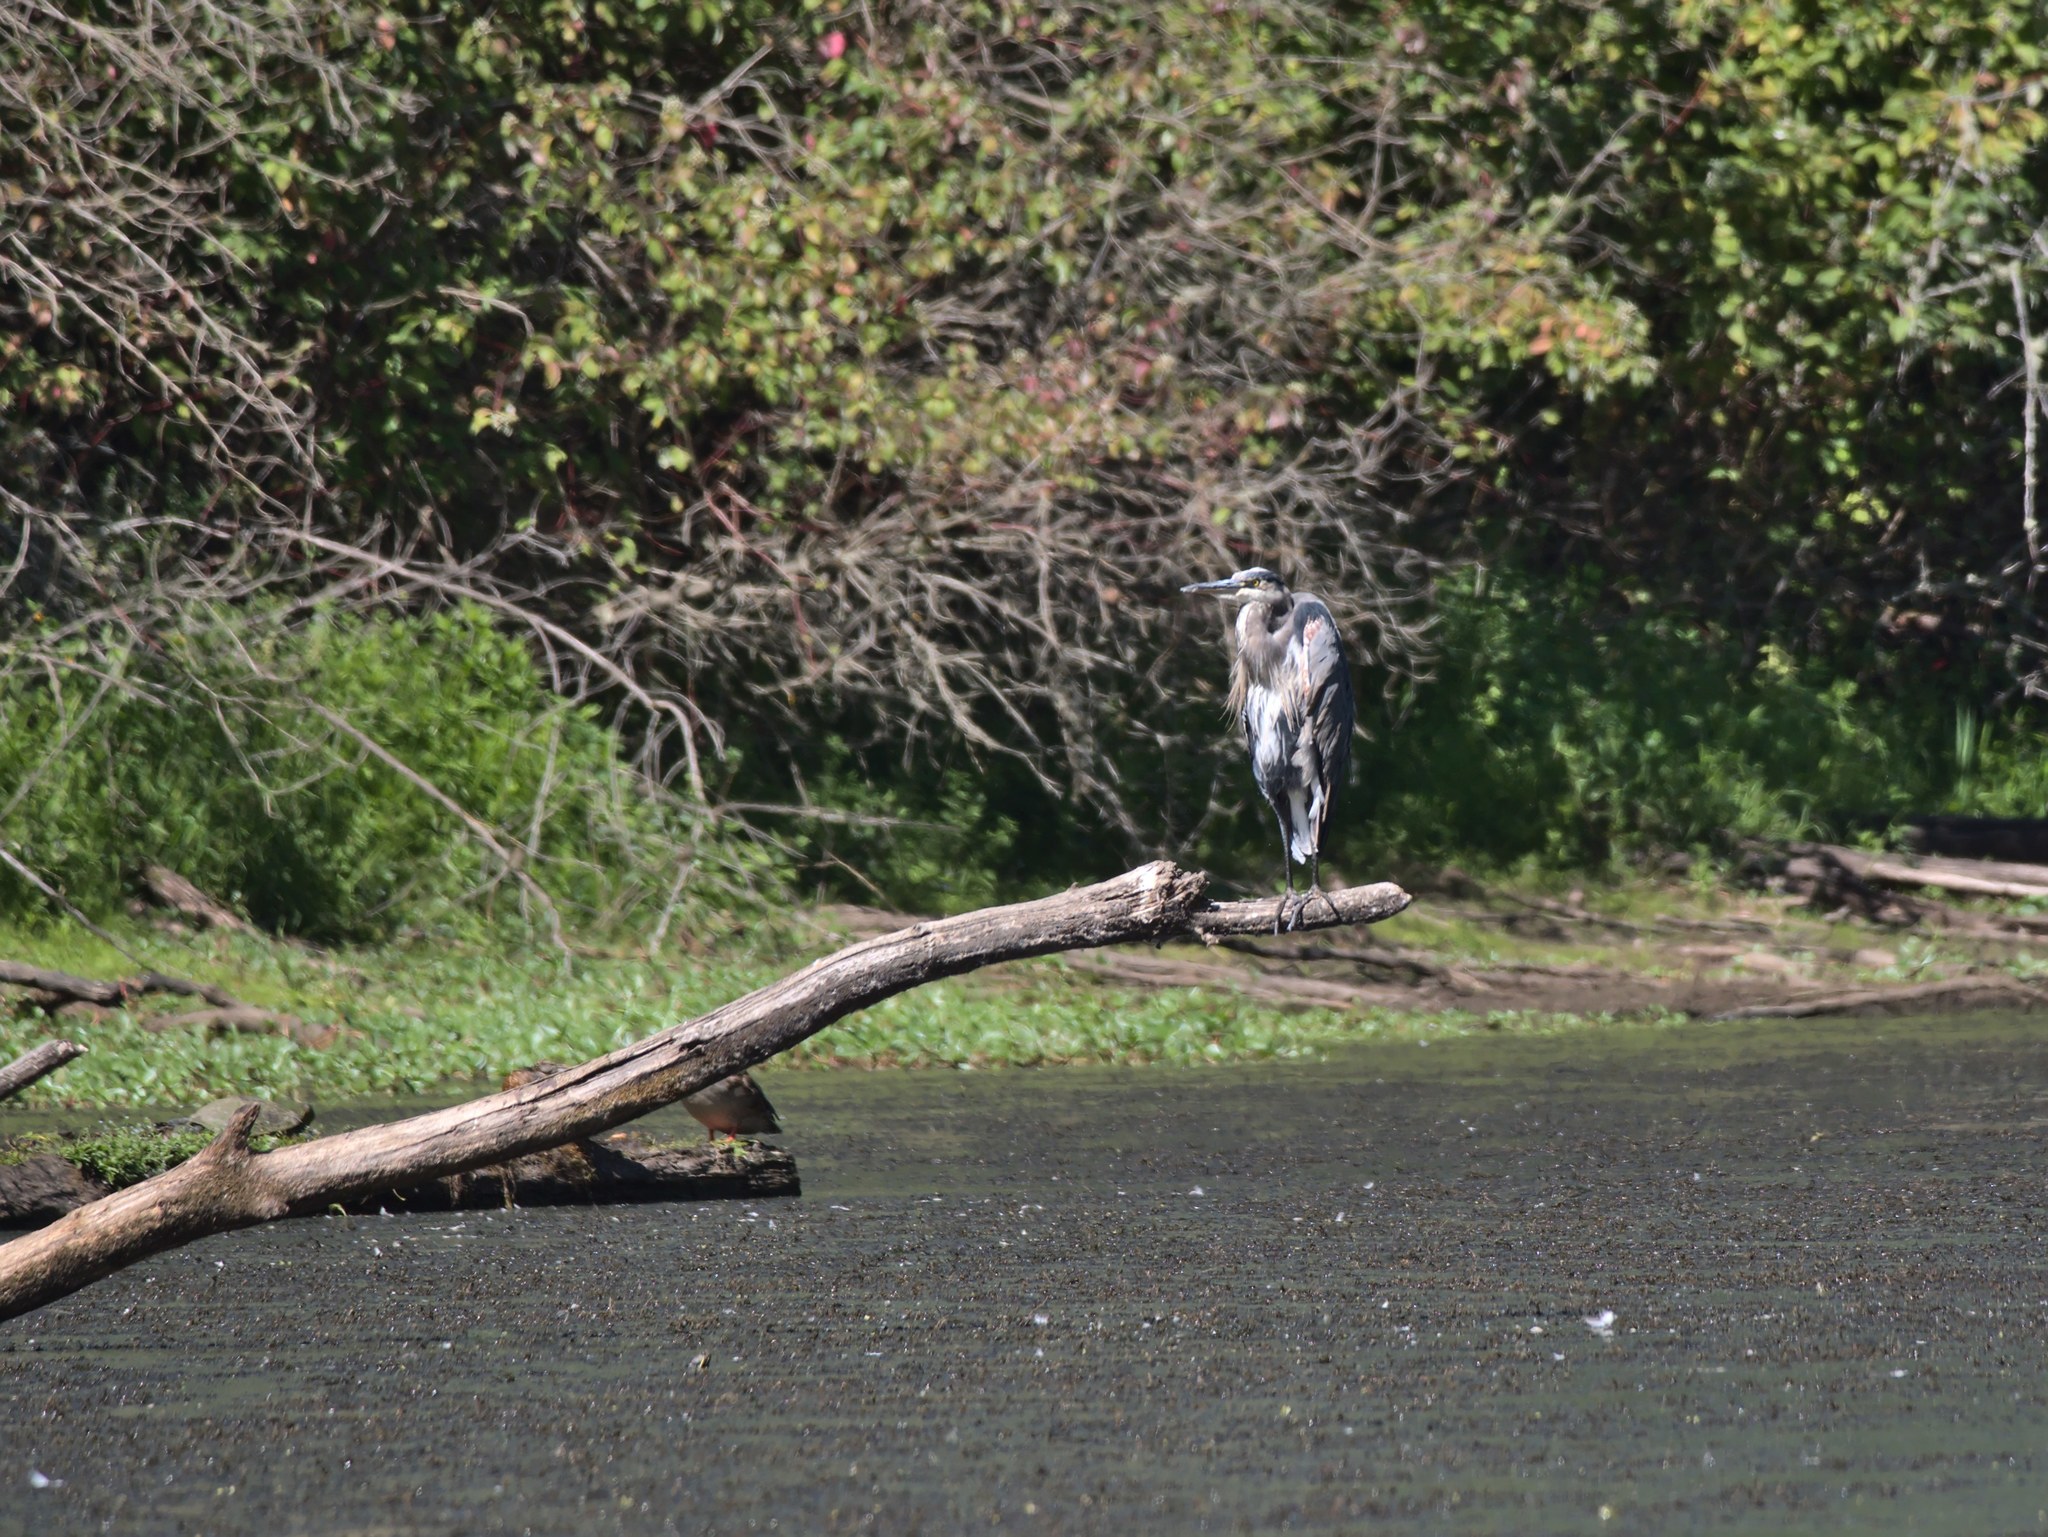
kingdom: Animalia
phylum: Chordata
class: Aves
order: Pelecaniformes
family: Ardeidae
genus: Ardea
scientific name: Ardea herodias
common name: Great blue heron
